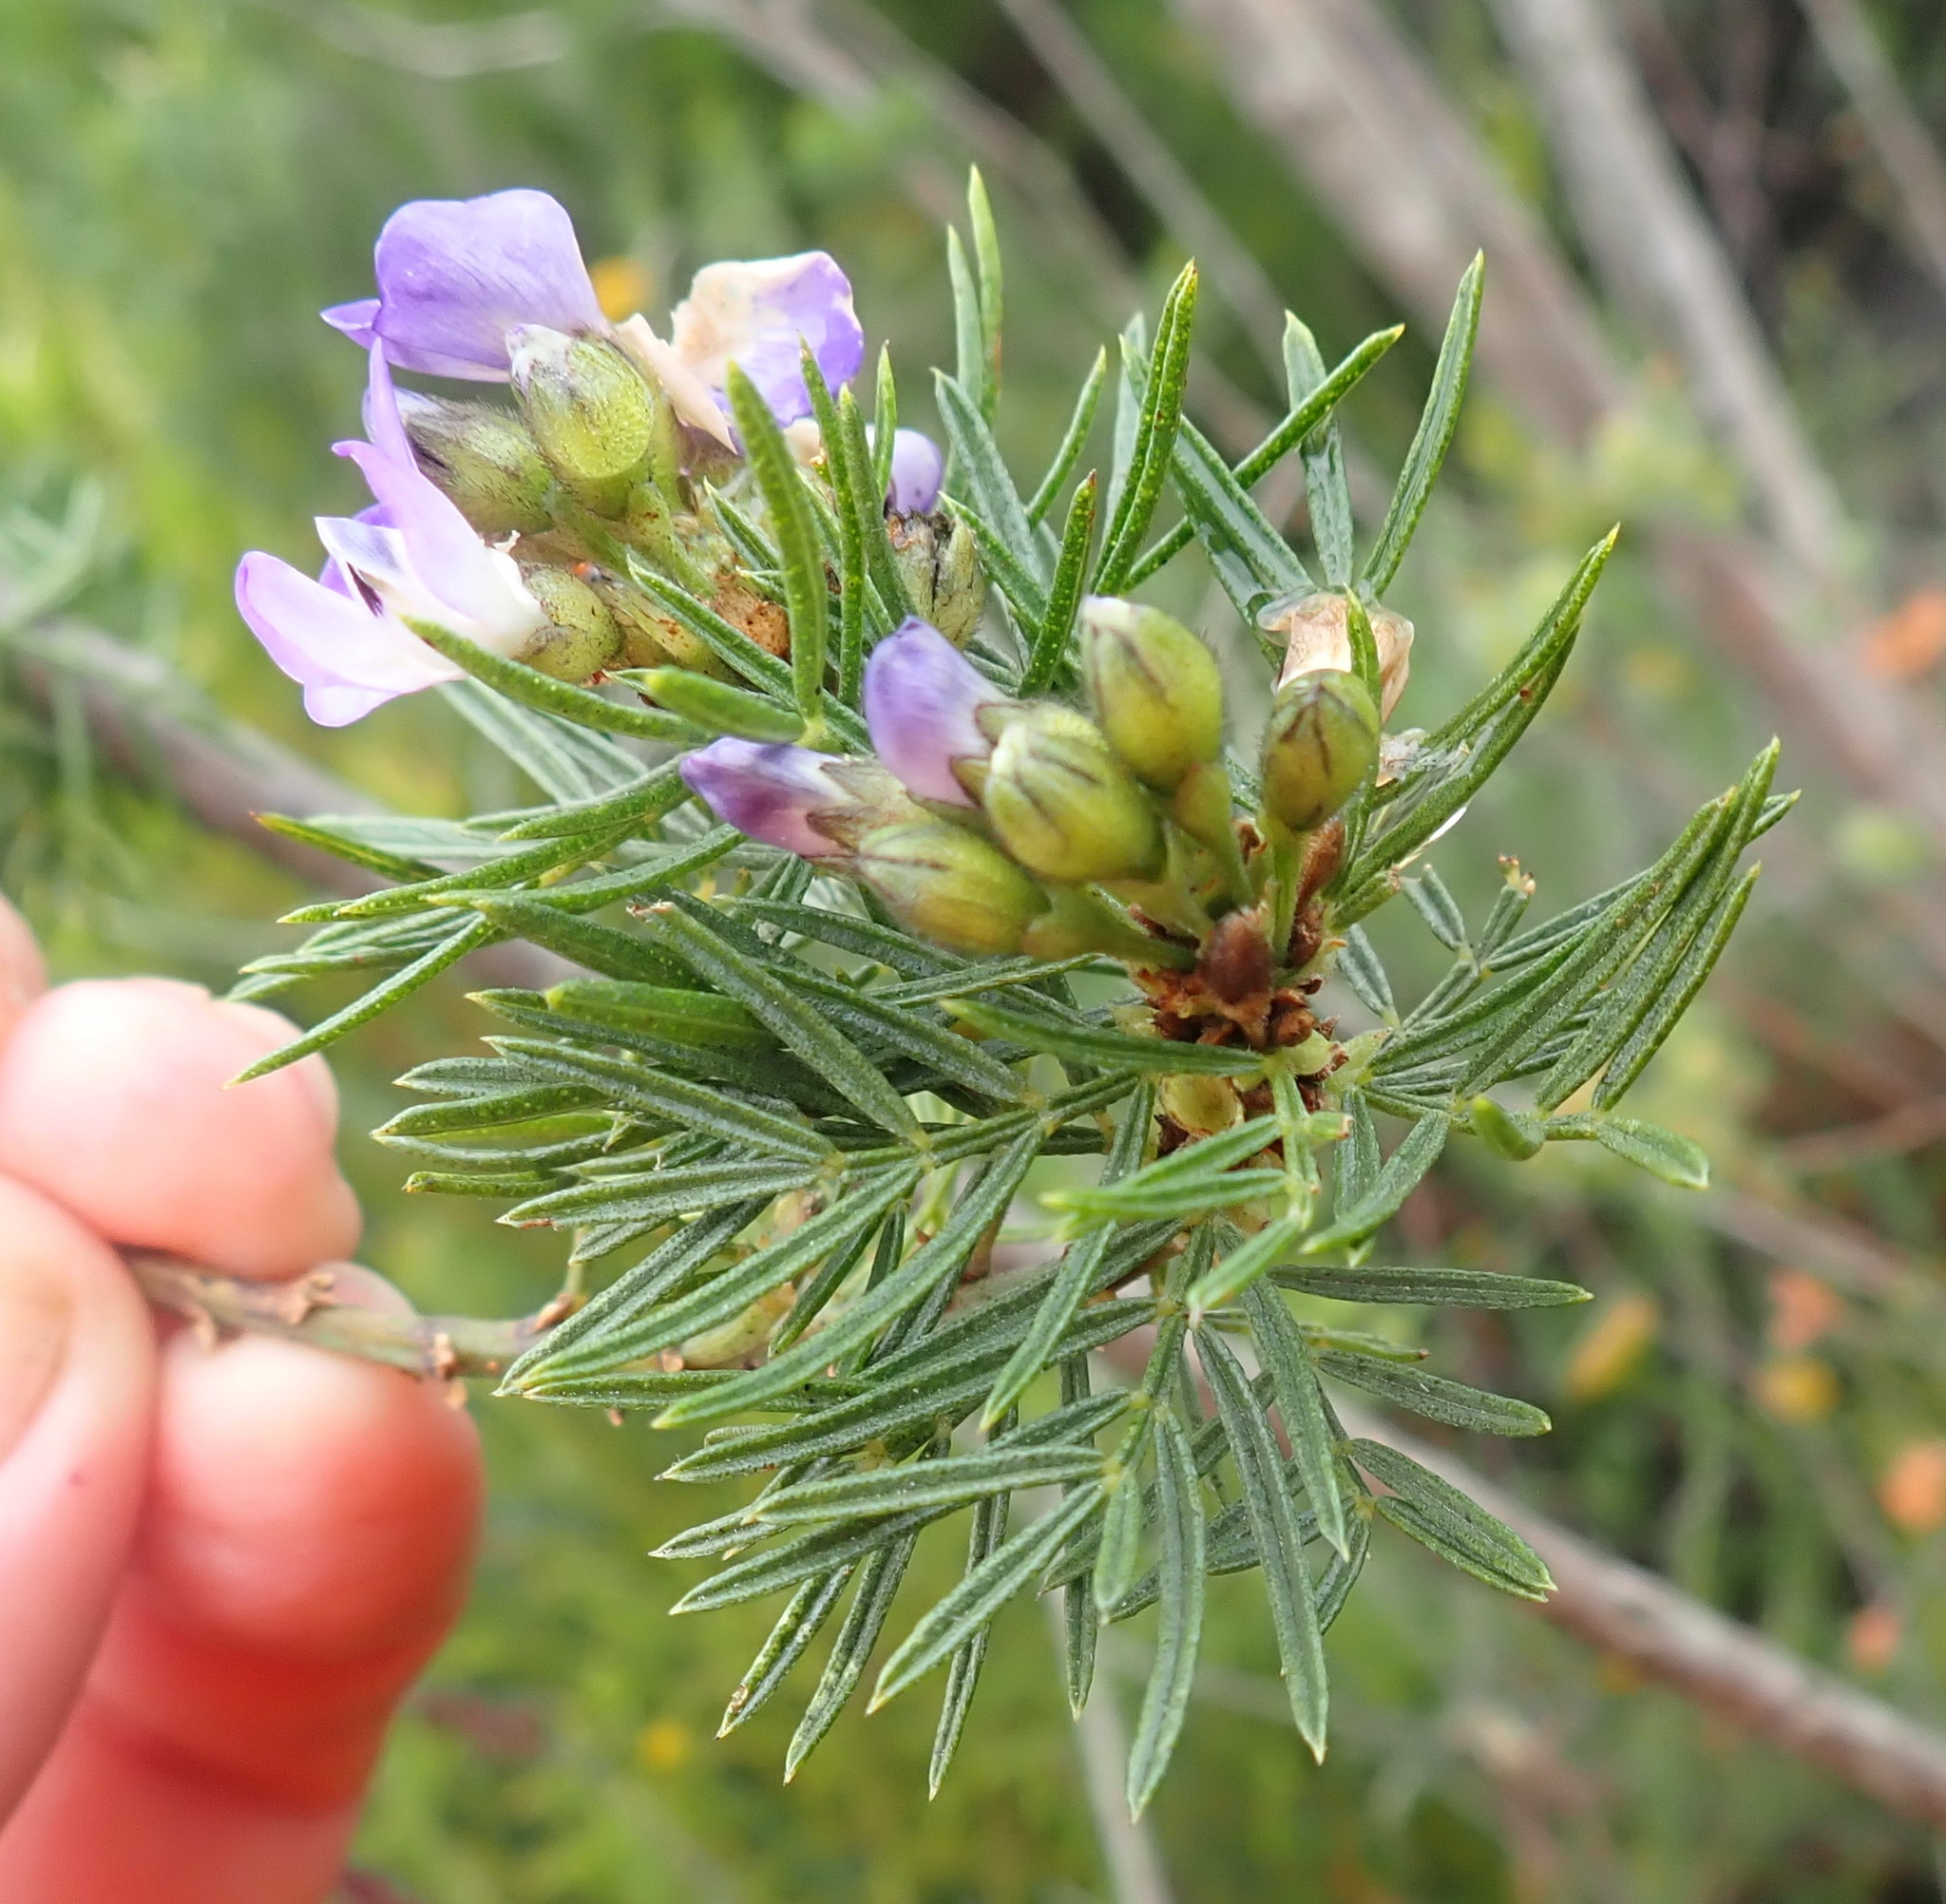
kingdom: Plantae
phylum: Tracheophyta
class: Magnoliopsida
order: Fabales
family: Fabaceae
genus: Psoralea
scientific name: Psoralea affinis
